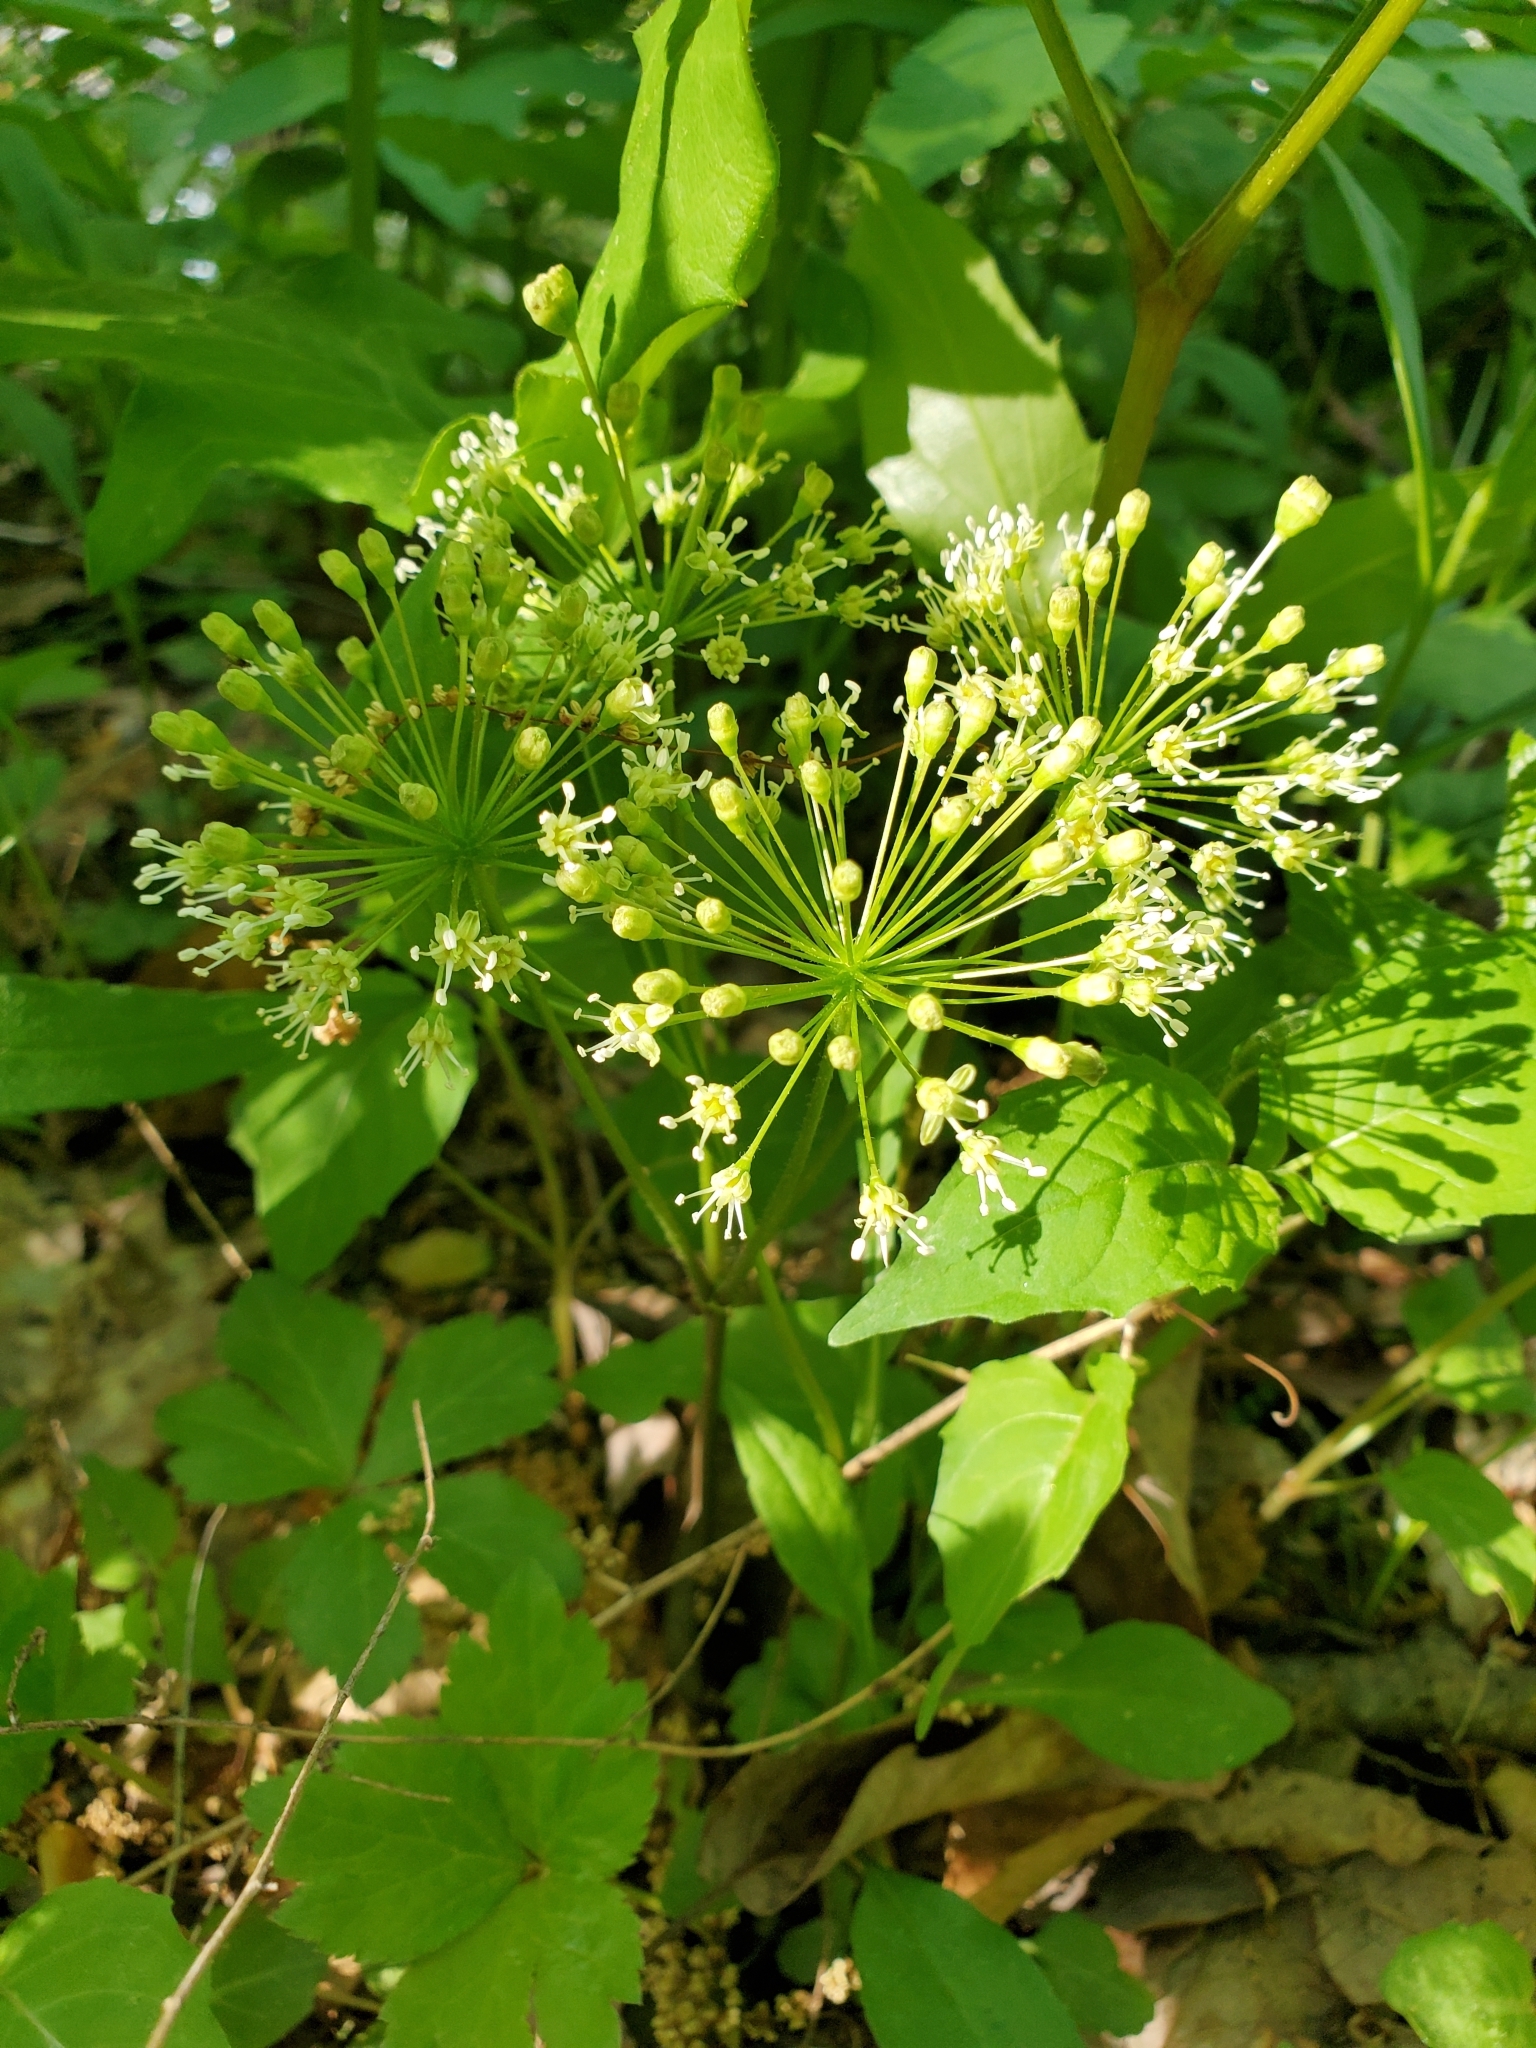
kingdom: Plantae
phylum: Tracheophyta
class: Magnoliopsida
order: Apiales
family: Araliaceae
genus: Aralia
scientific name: Aralia nudicaulis
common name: Wild sarsaparilla
